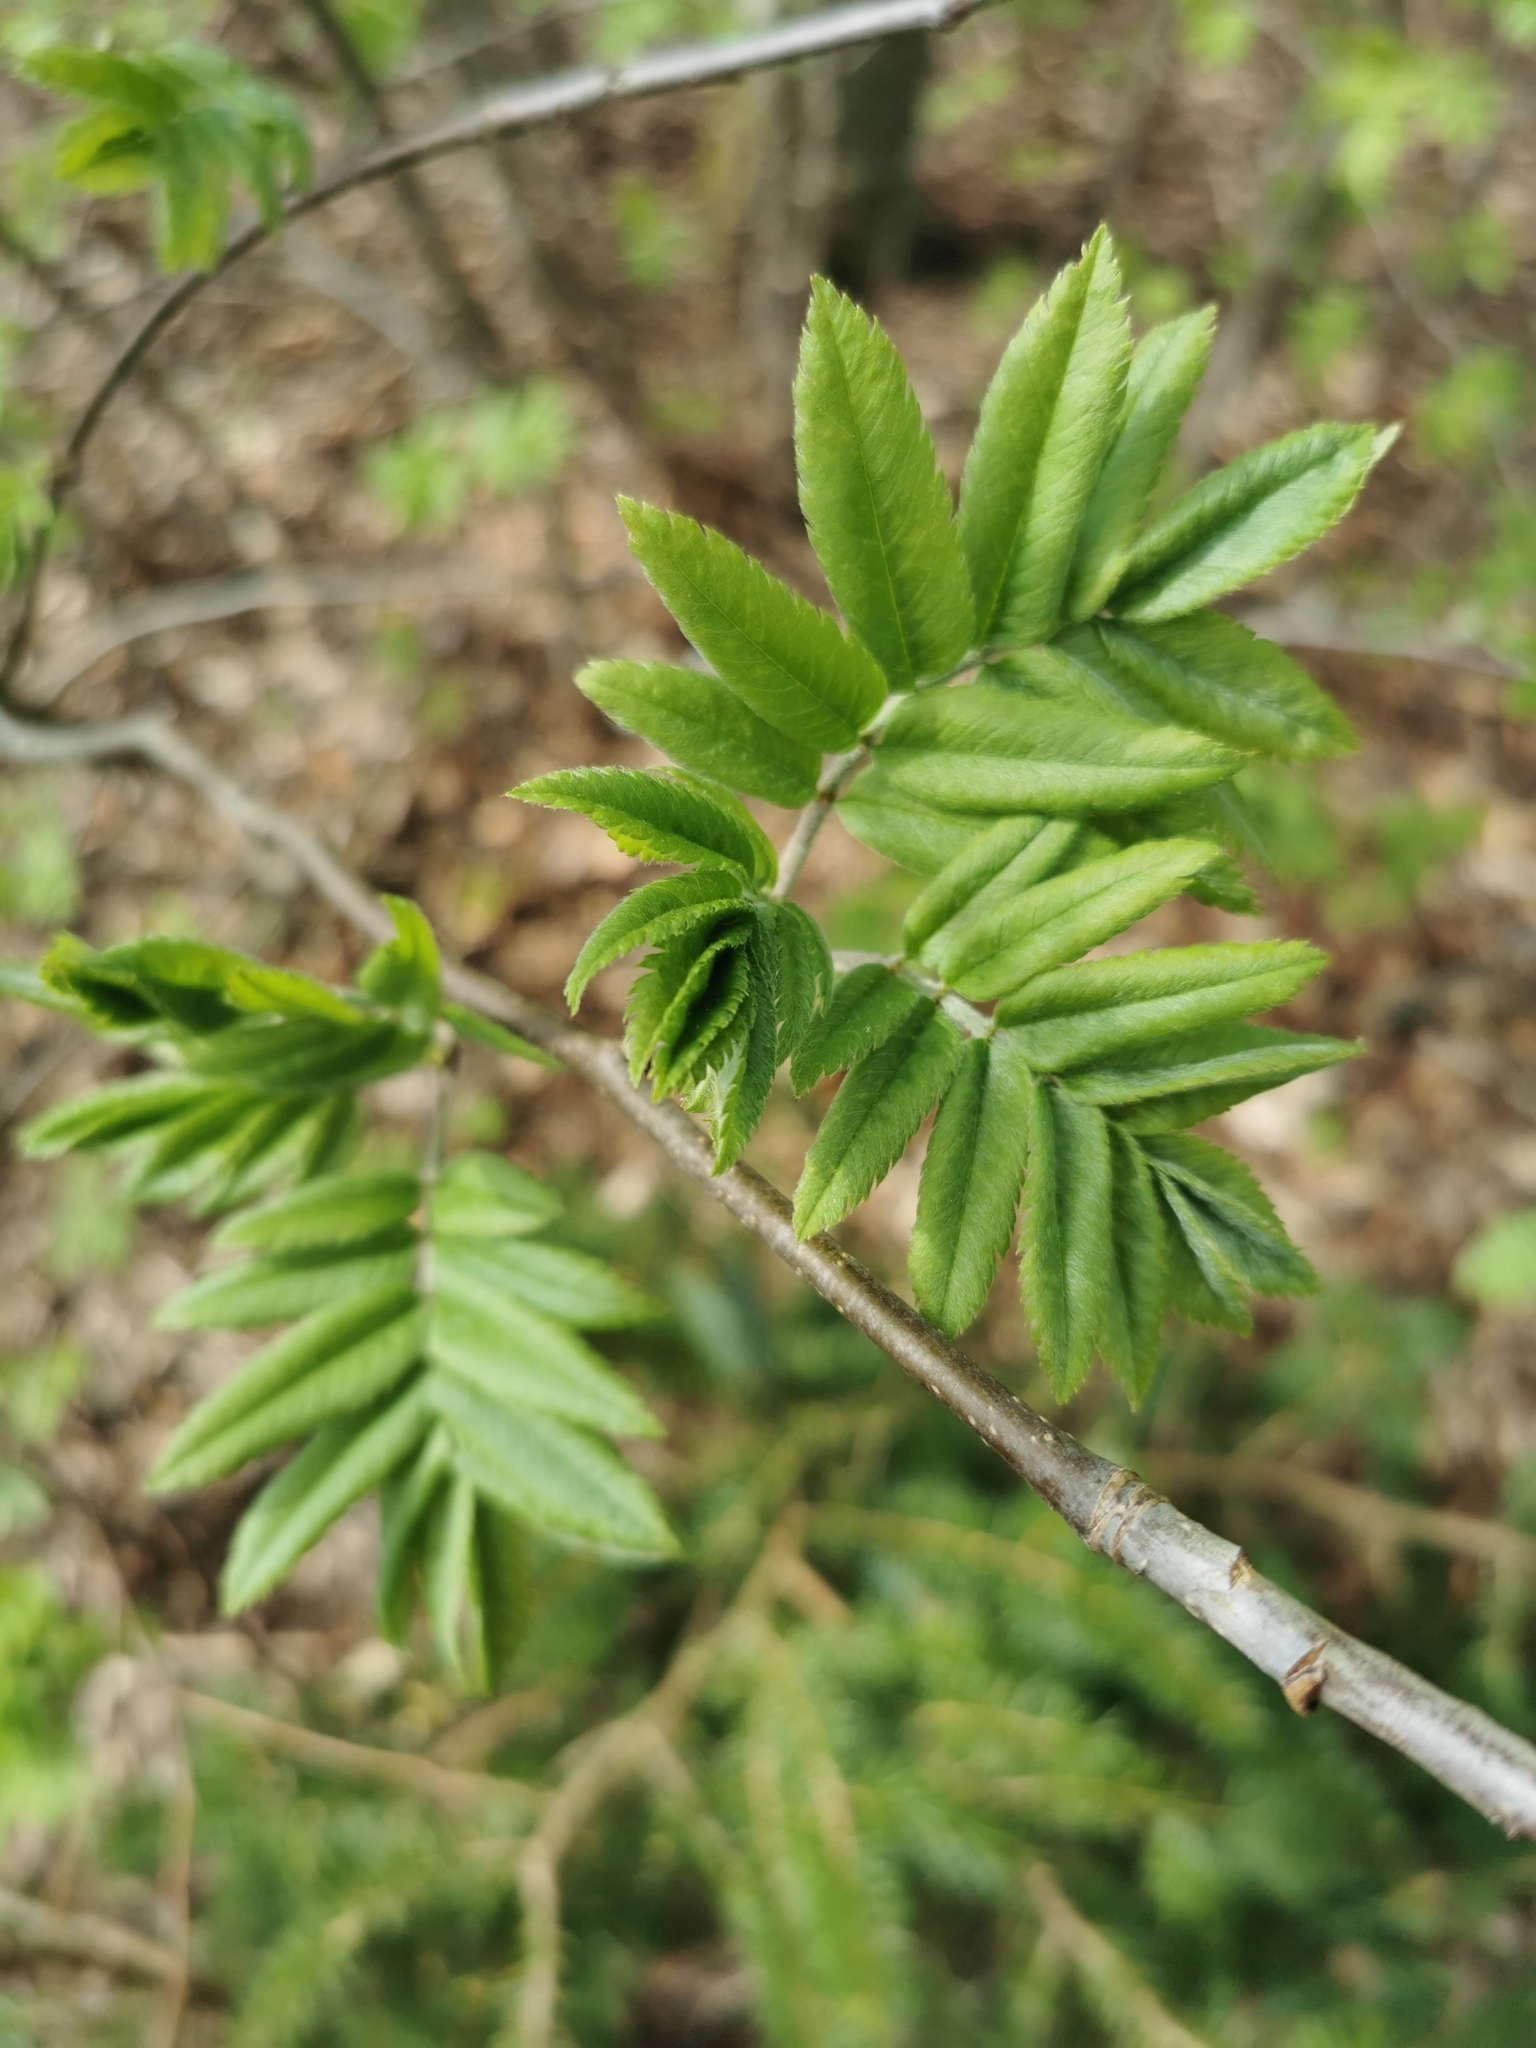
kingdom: Plantae
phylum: Tracheophyta
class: Magnoliopsida
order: Rosales
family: Rosaceae
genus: Sorbus
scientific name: Sorbus aucuparia
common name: Rowan
